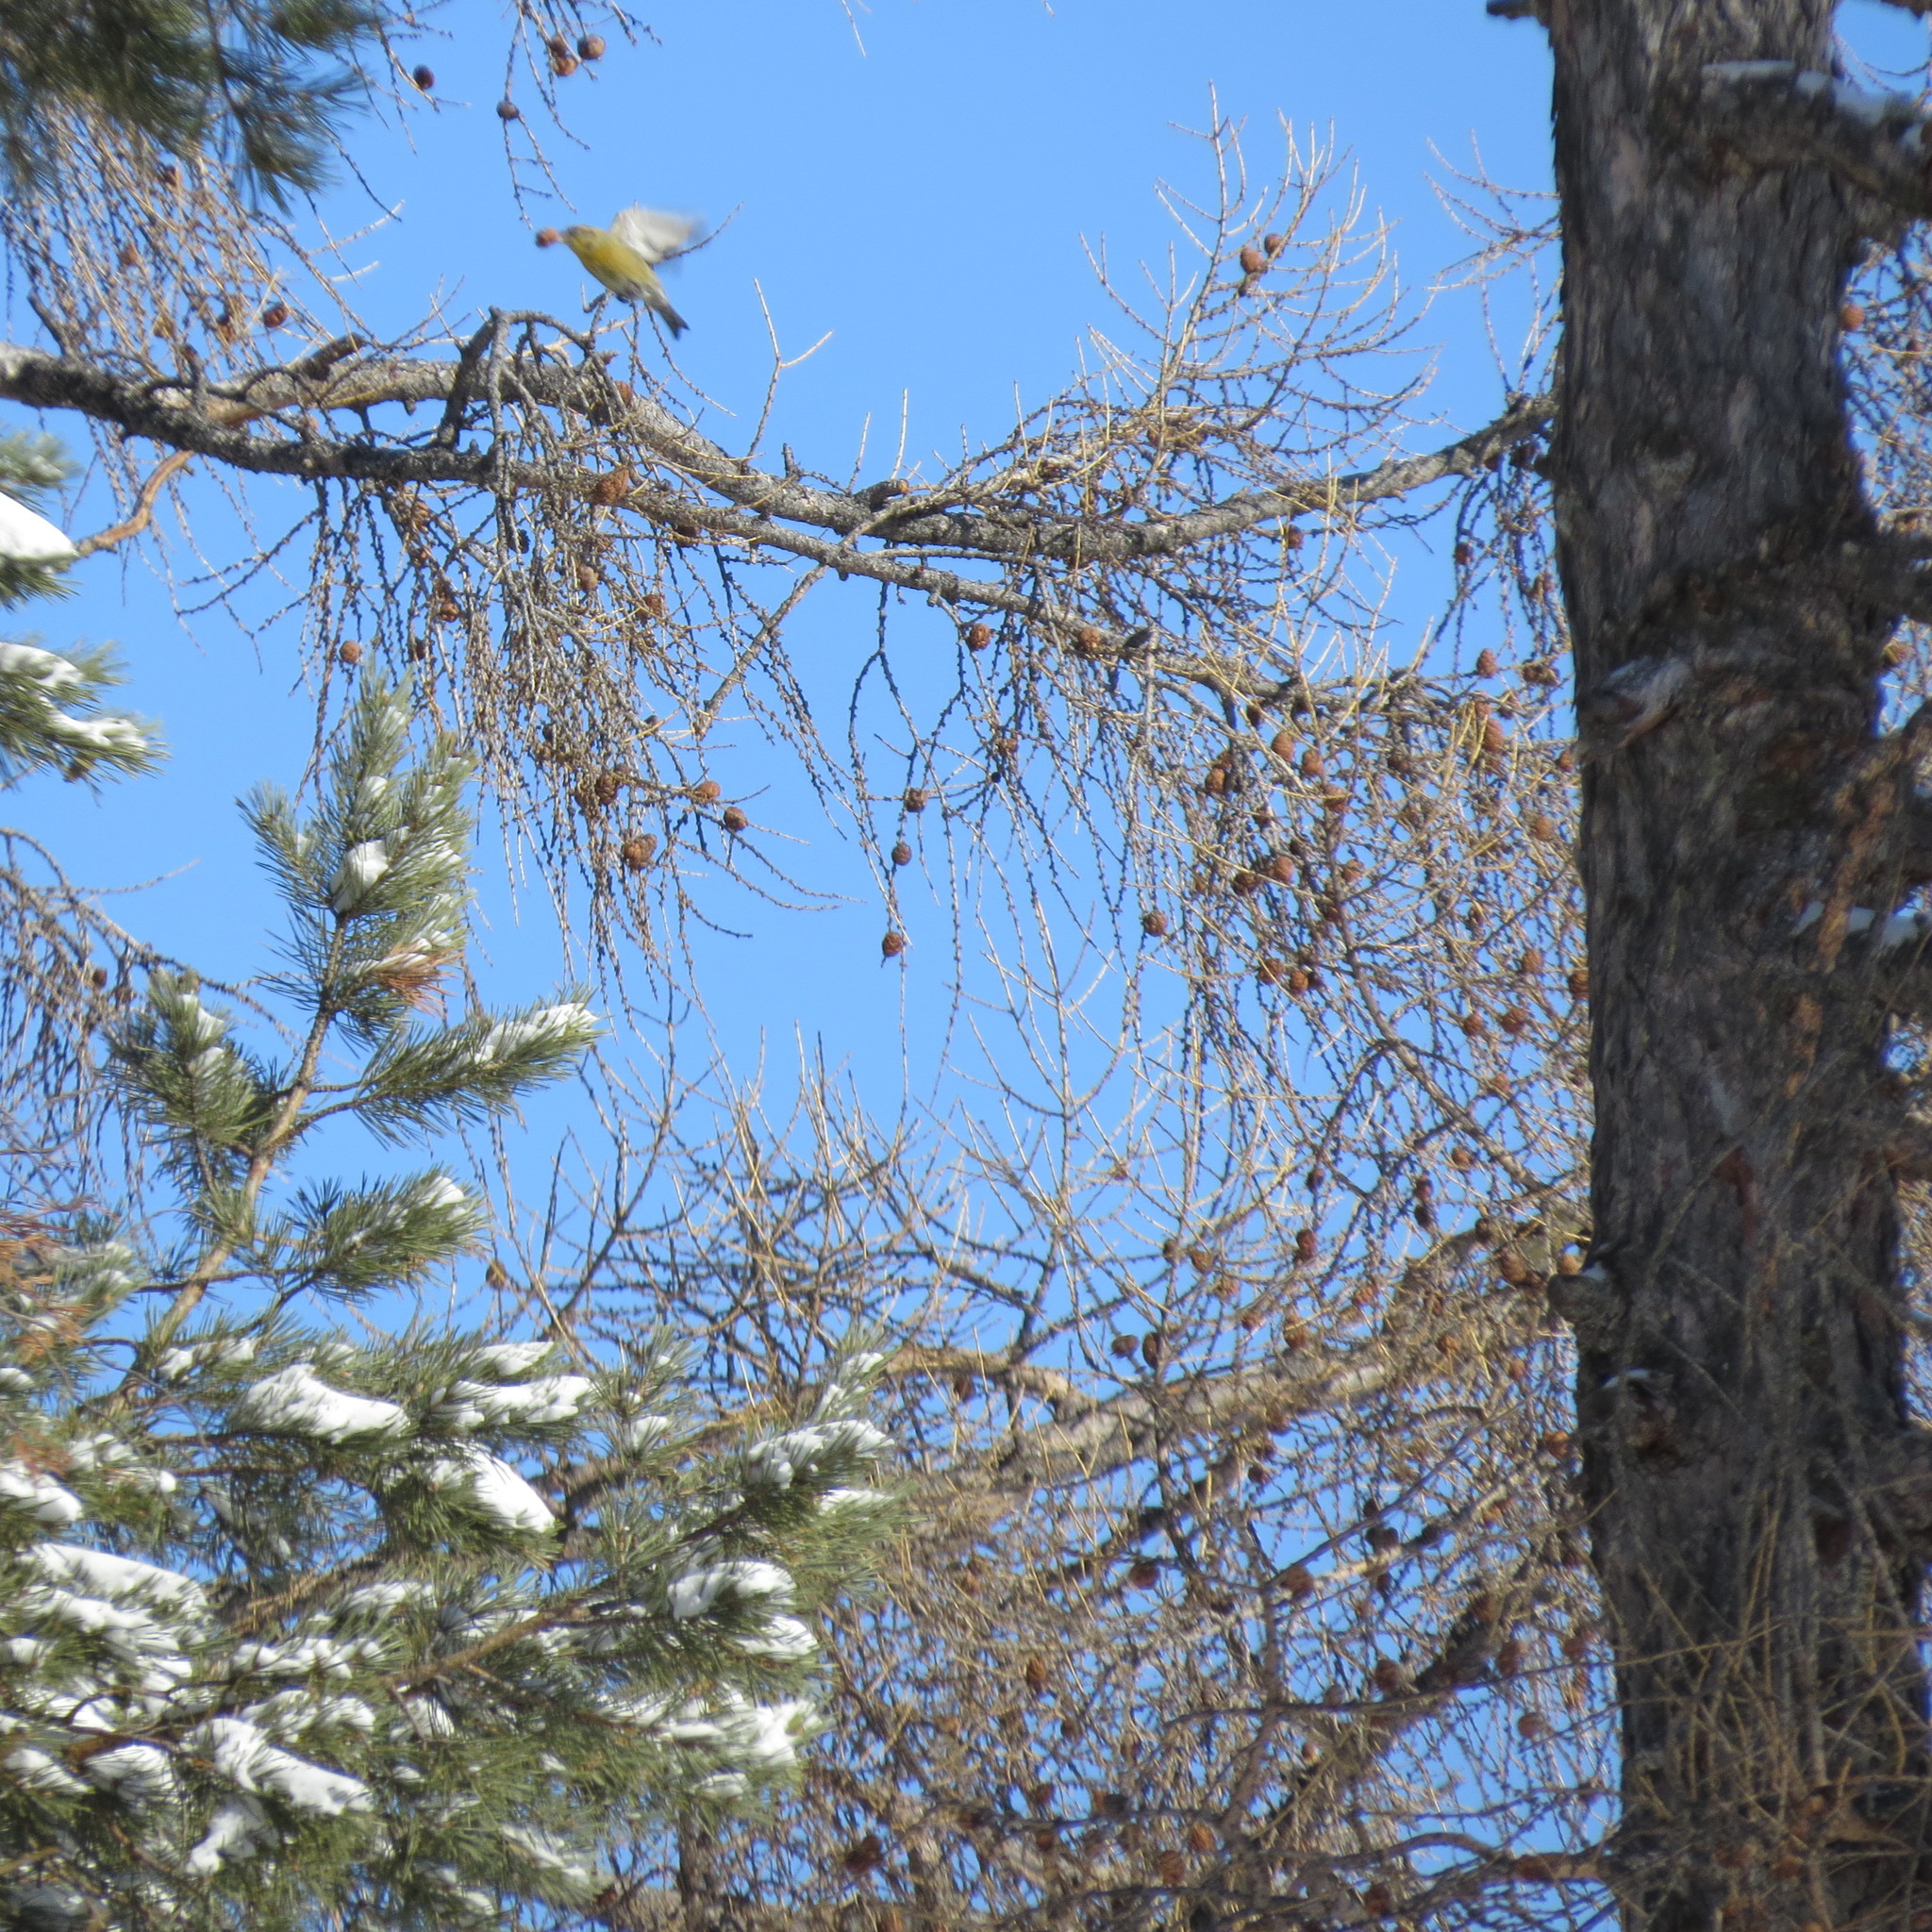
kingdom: Animalia
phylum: Chordata
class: Aves
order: Passeriformes
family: Fringillidae
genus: Loxia
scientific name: Loxia curvirostra
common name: Red crossbill
